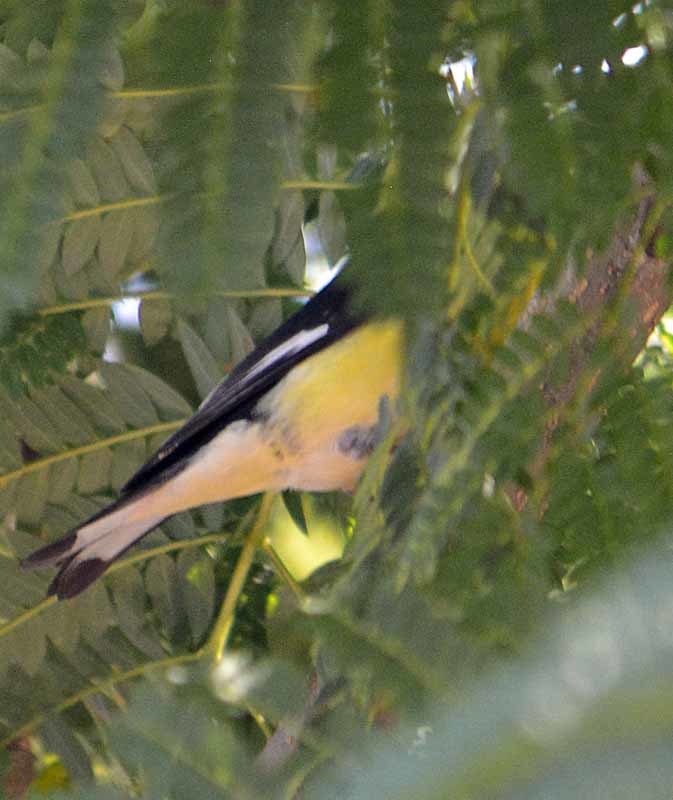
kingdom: Animalia
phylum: Chordata
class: Aves
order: Passeriformes
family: Fringillidae
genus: Spinus
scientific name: Spinus psaltria
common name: Lesser goldfinch
